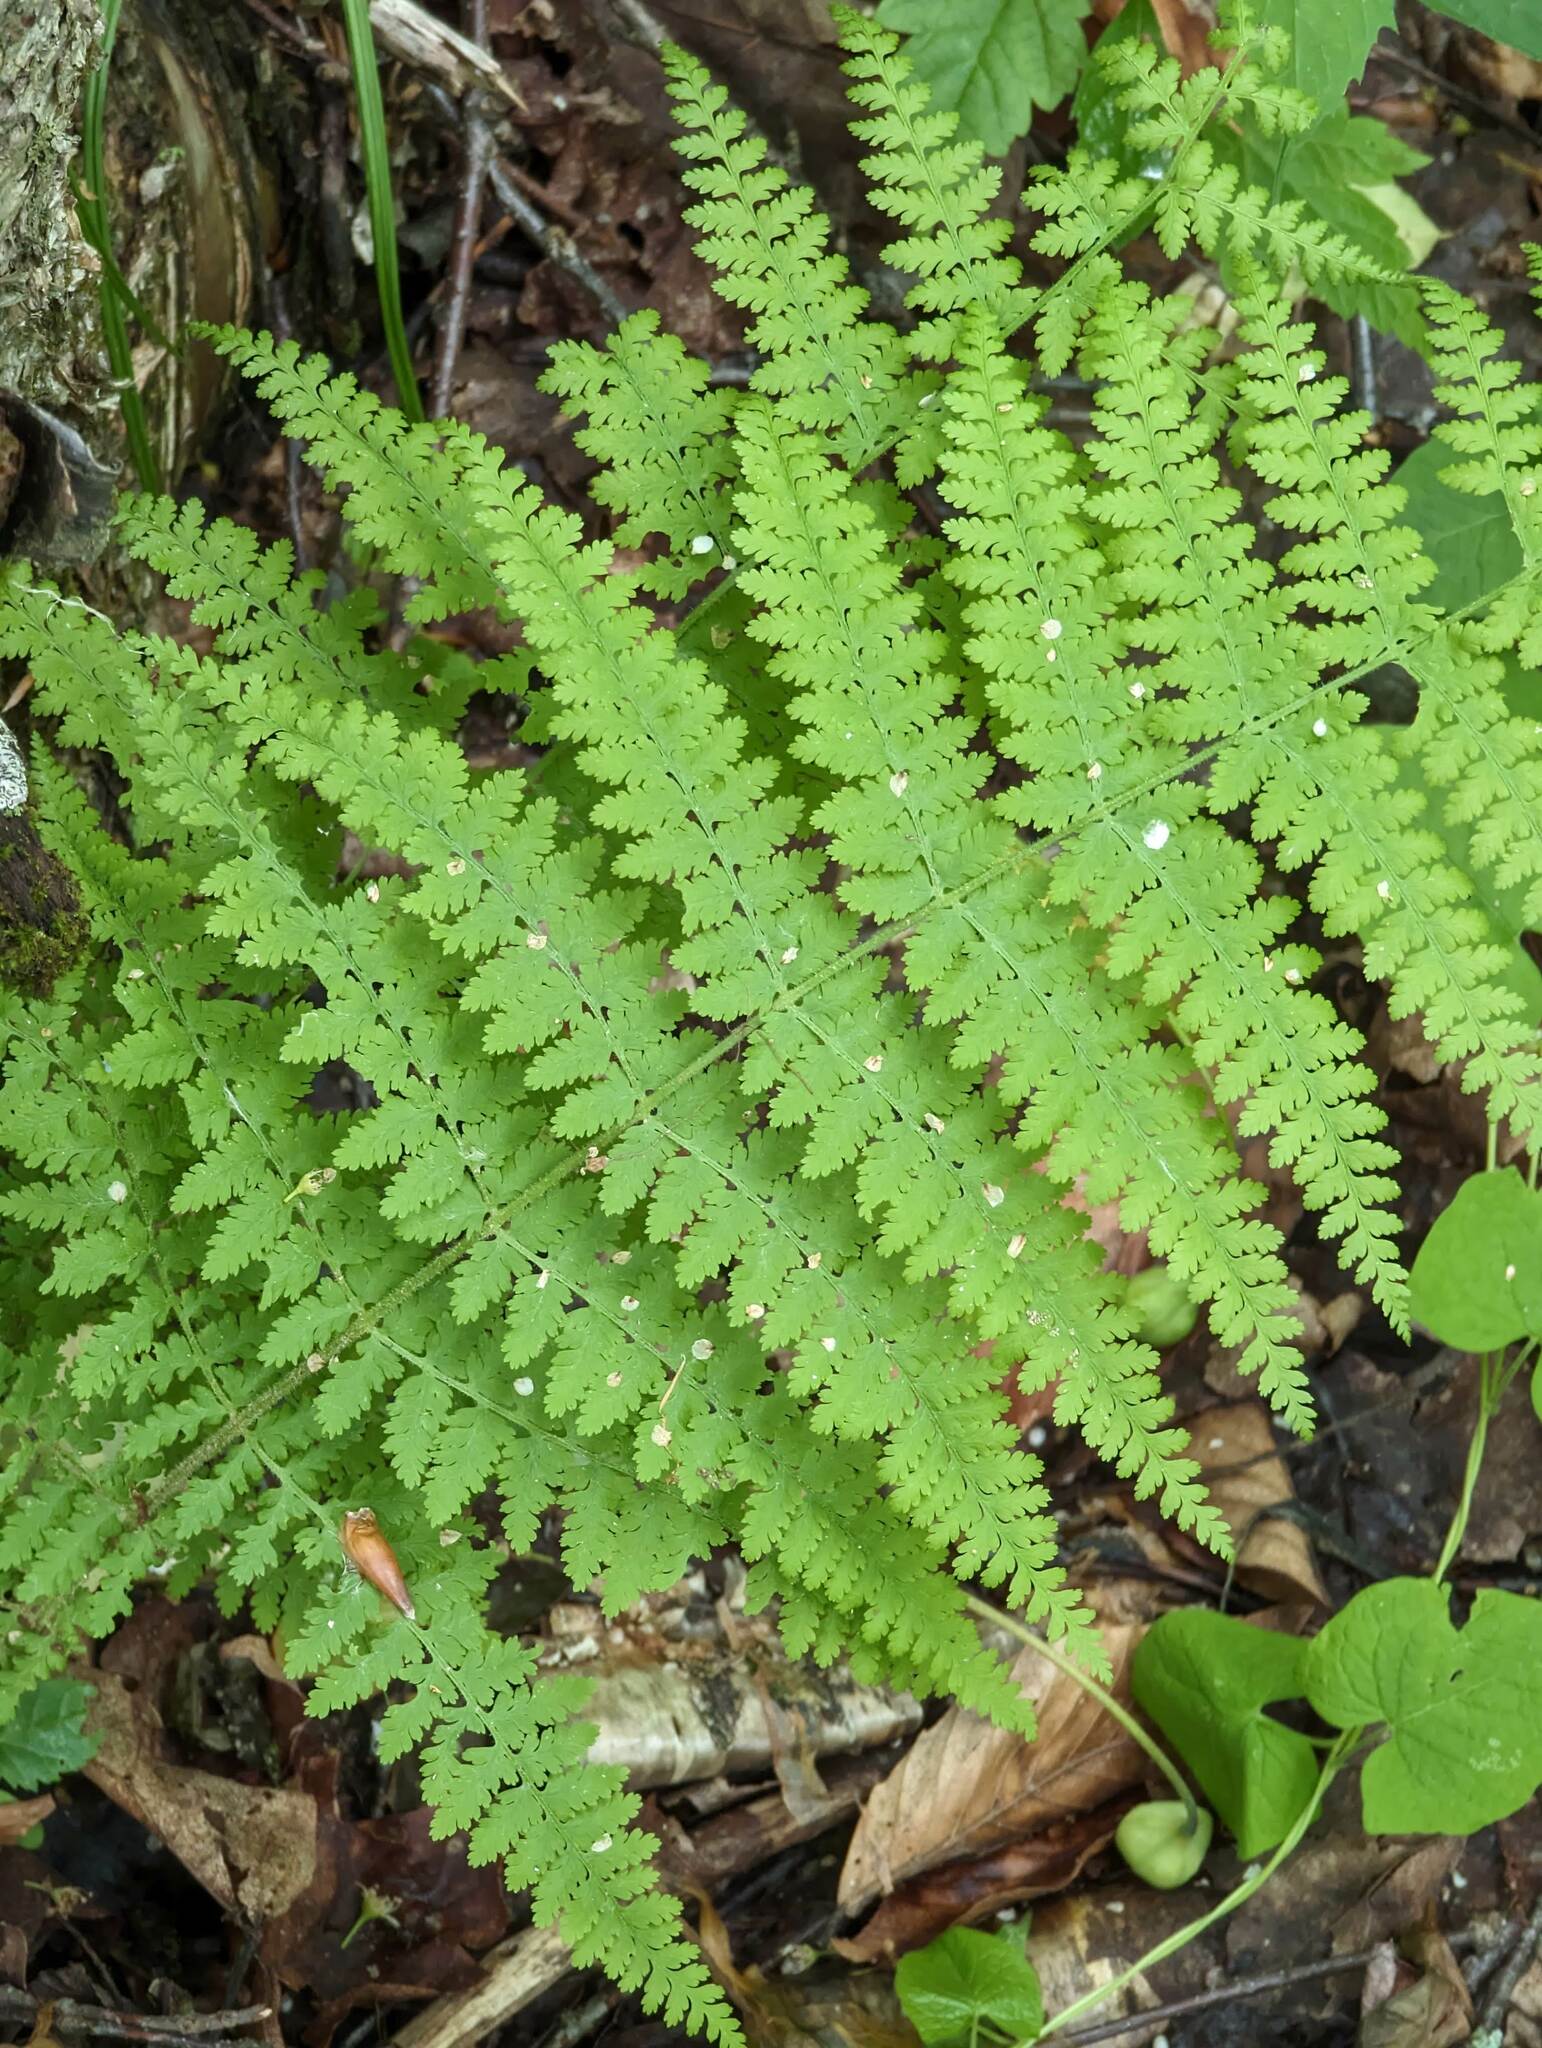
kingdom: Plantae
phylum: Tracheophyta
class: Polypodiopsida
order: Polypodiales
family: Dennstaedtiaceae
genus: Sitobolium
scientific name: Sitobolium punctilobum
